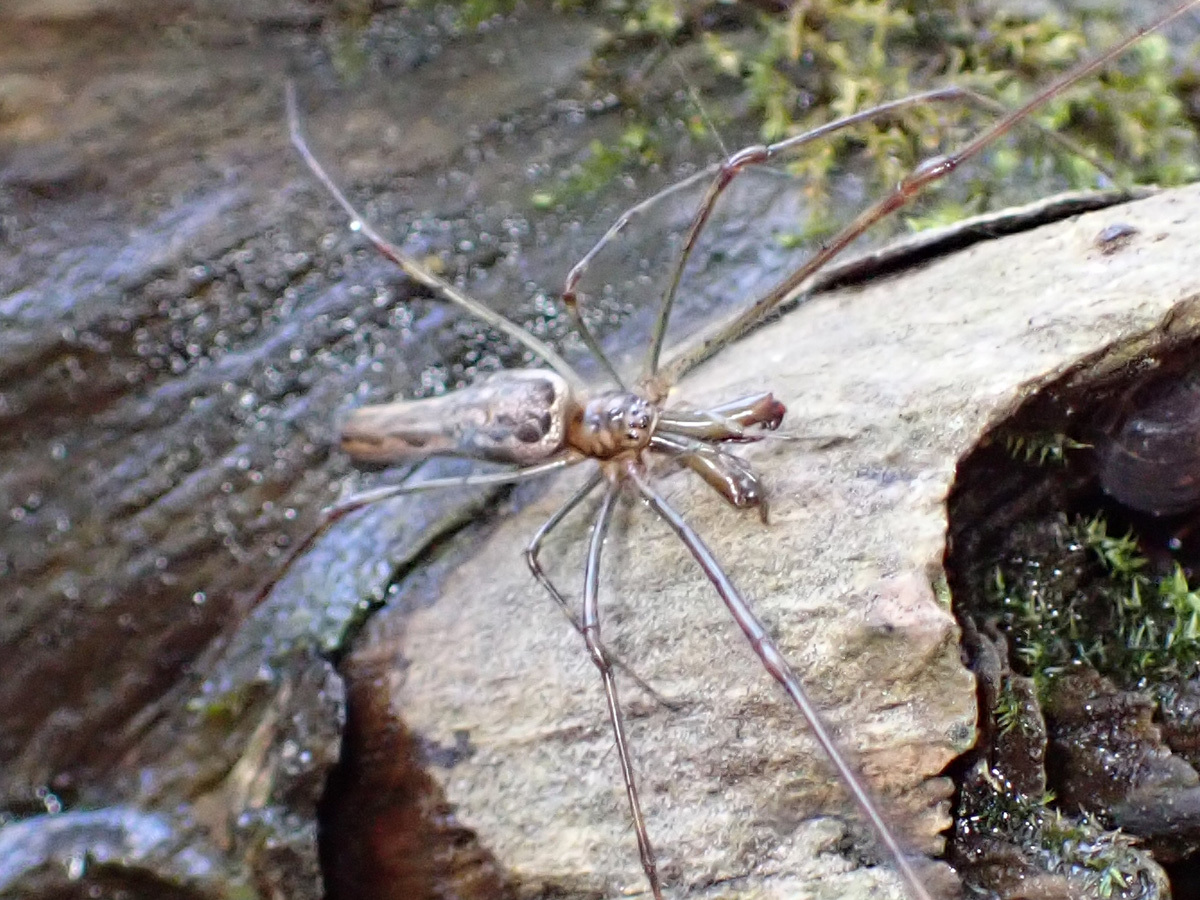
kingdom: Animalia
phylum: Arthropoda
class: Arachnida
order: Araneae
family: Tetragnathidae
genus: Tetragnatha
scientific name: Tetragnatha
